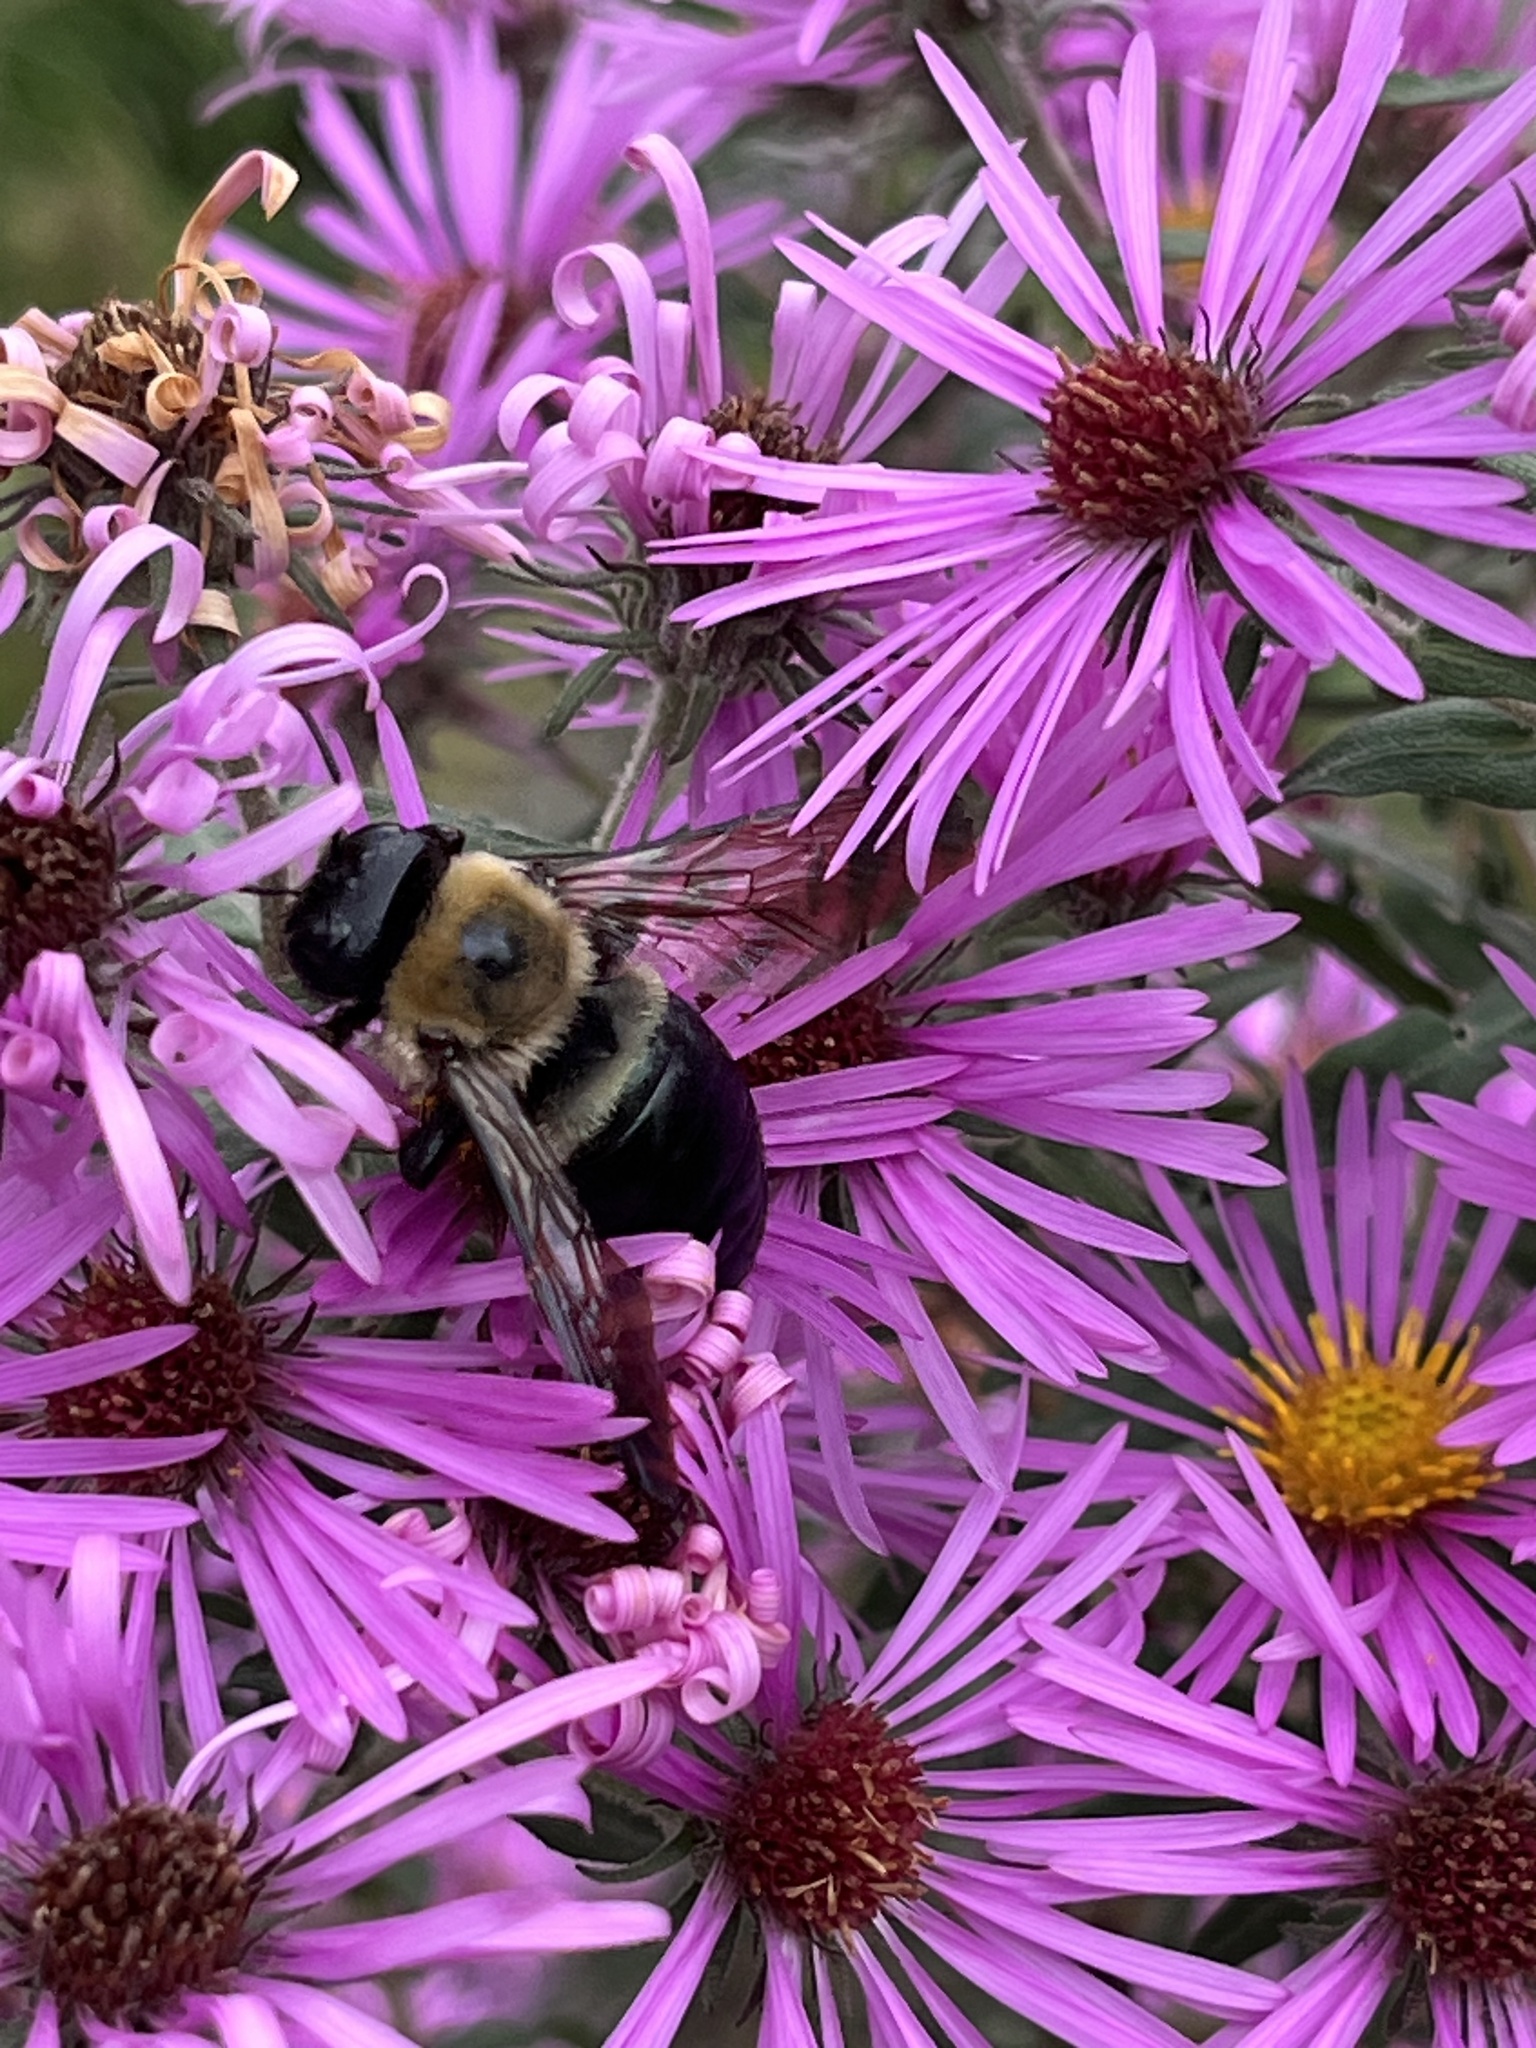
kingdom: Animalia
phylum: Arthropoda
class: Insecta
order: Hymenoptera
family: Apidae
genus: Xylocopa
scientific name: Xylocopa virginica
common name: Carpenter bee
